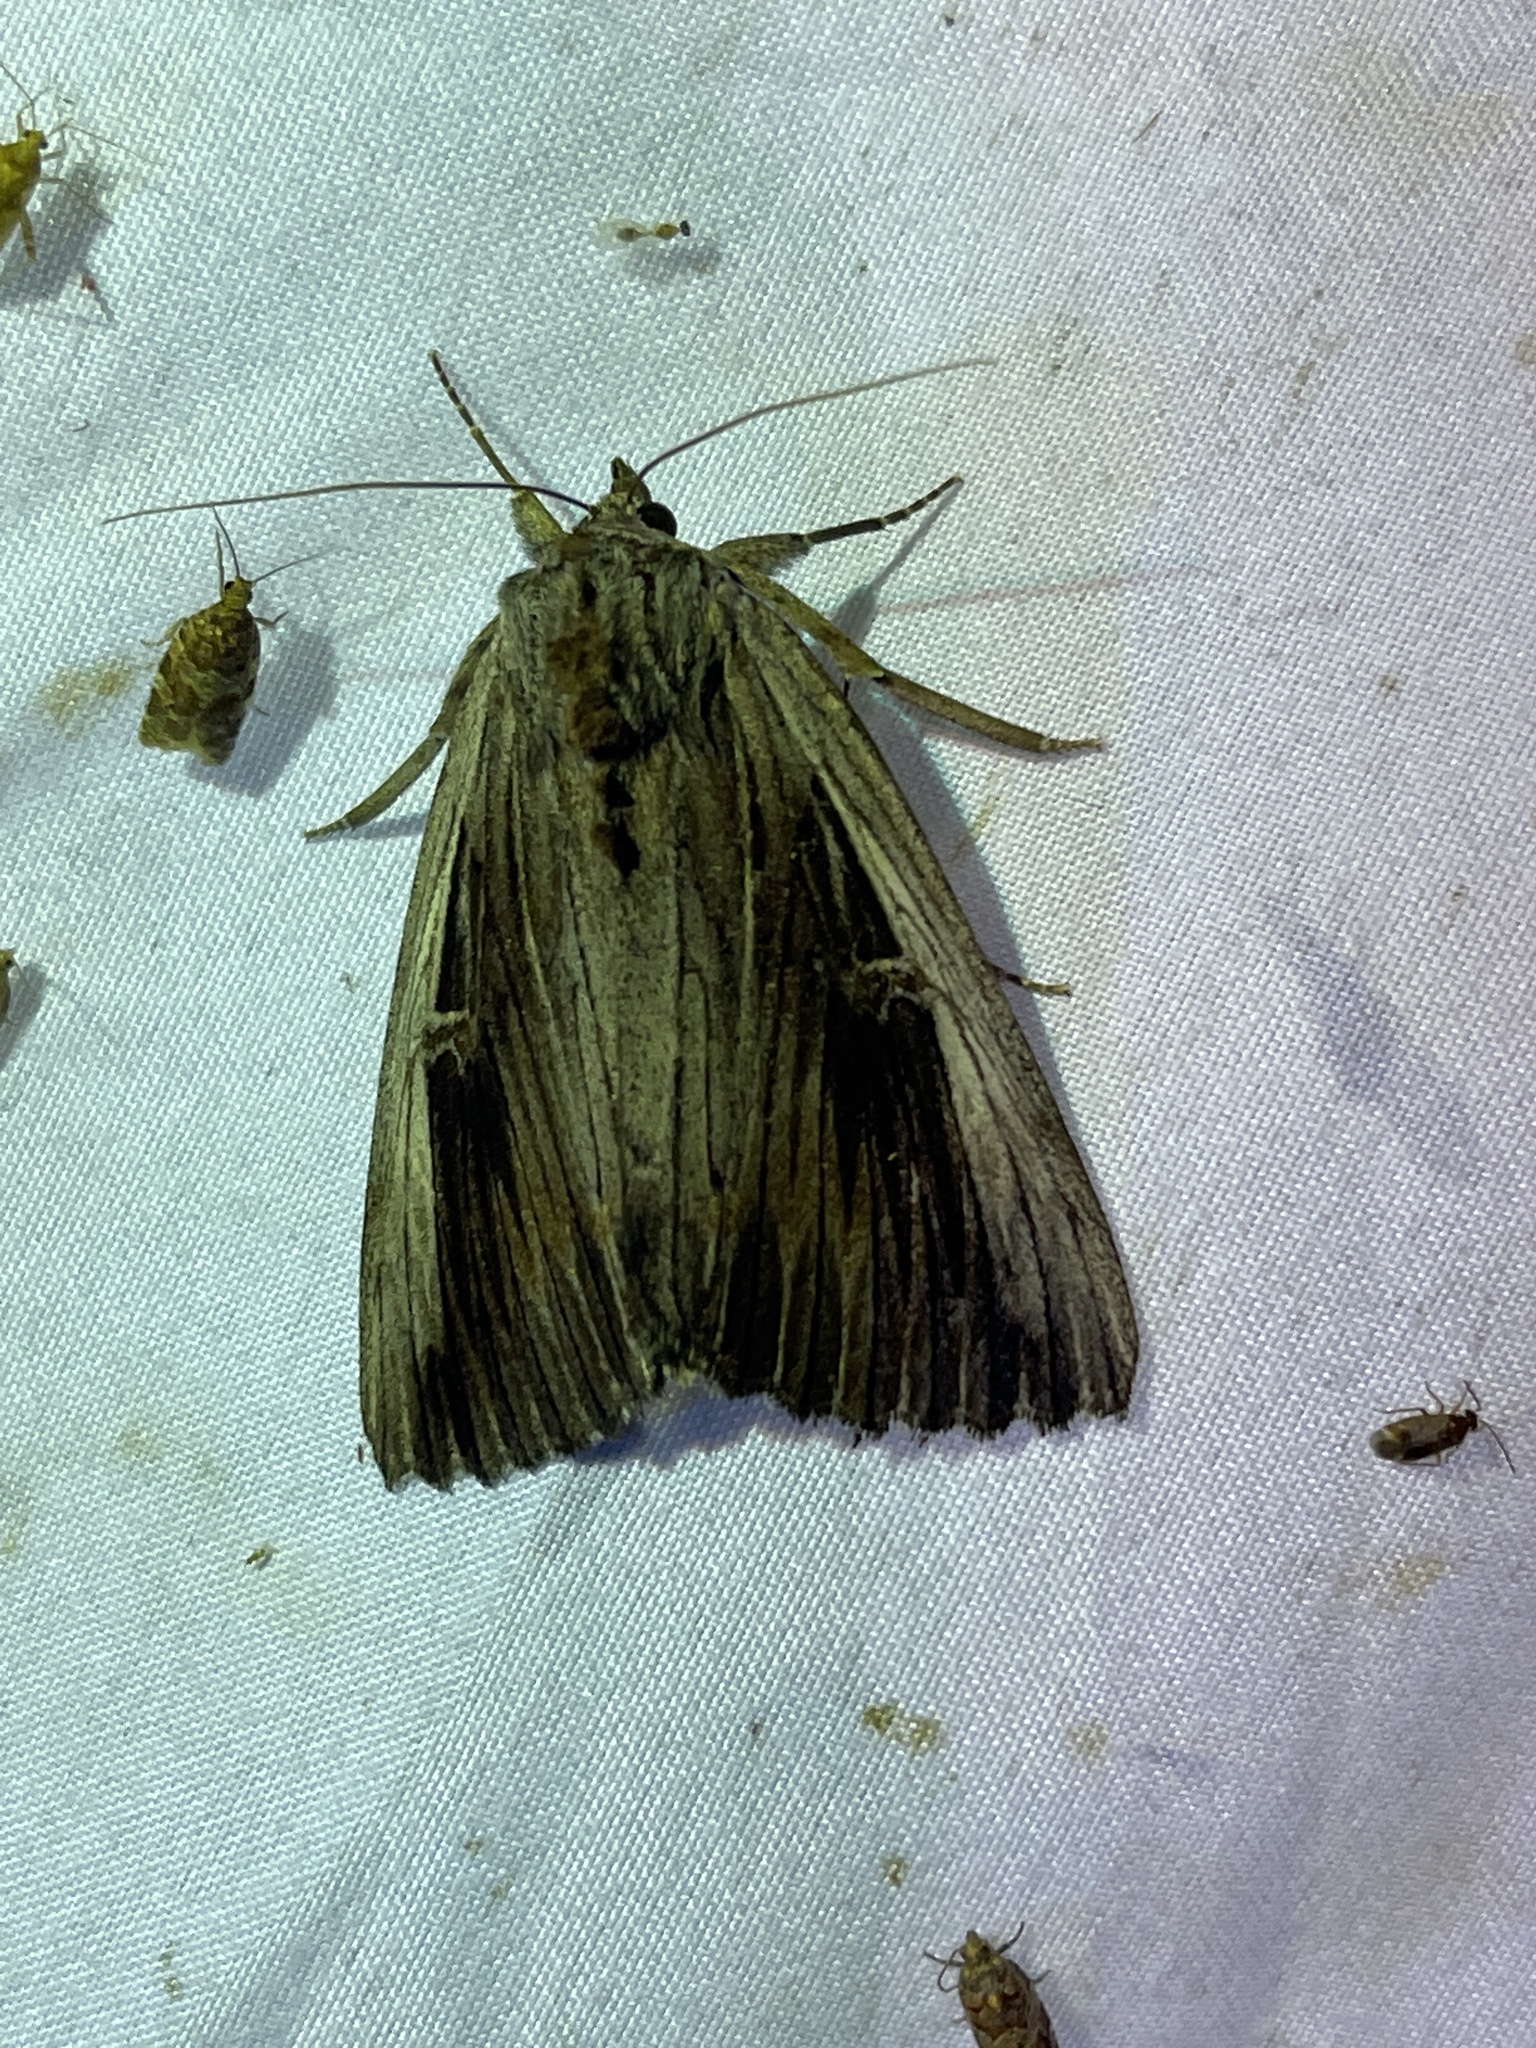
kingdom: Animalia
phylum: Arthropoda
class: Insecta
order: Lepidoptera
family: Erebidae
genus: Catocala
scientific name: Catocala herodias
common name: Pine barrens underwing
